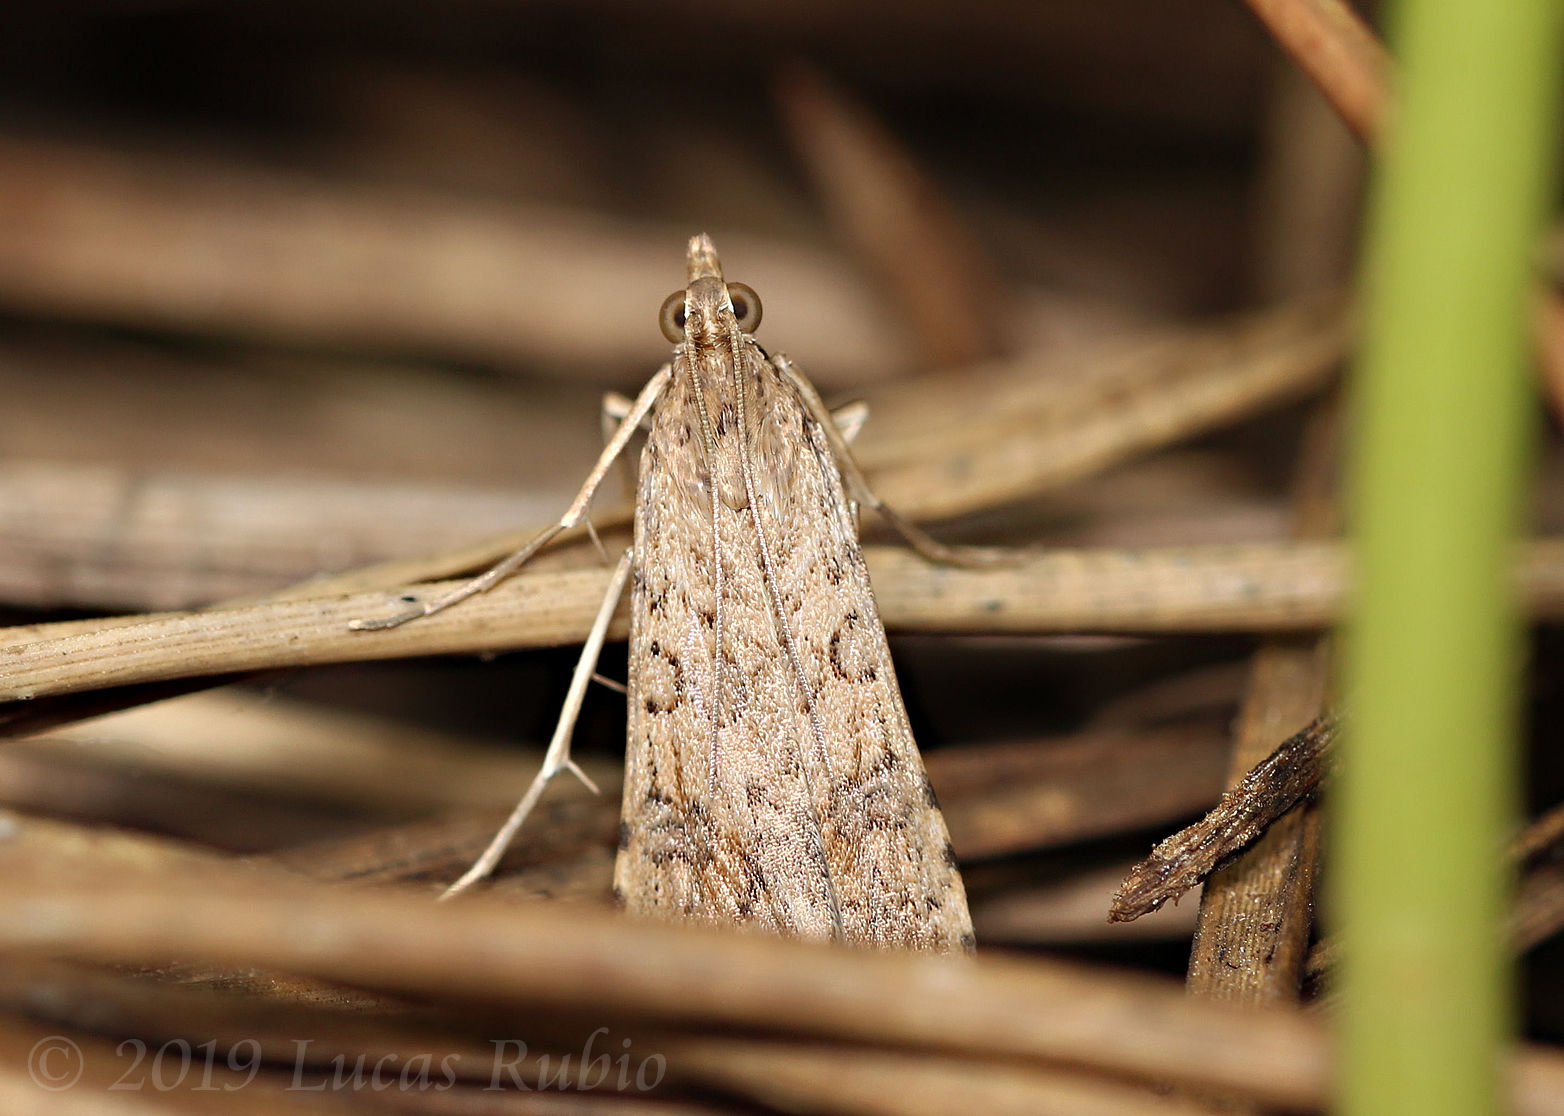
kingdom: Animalia
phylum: Arthropoda
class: Insecta
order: Lepidoptera
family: Crambidae
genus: Nomophila
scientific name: Nomophila
